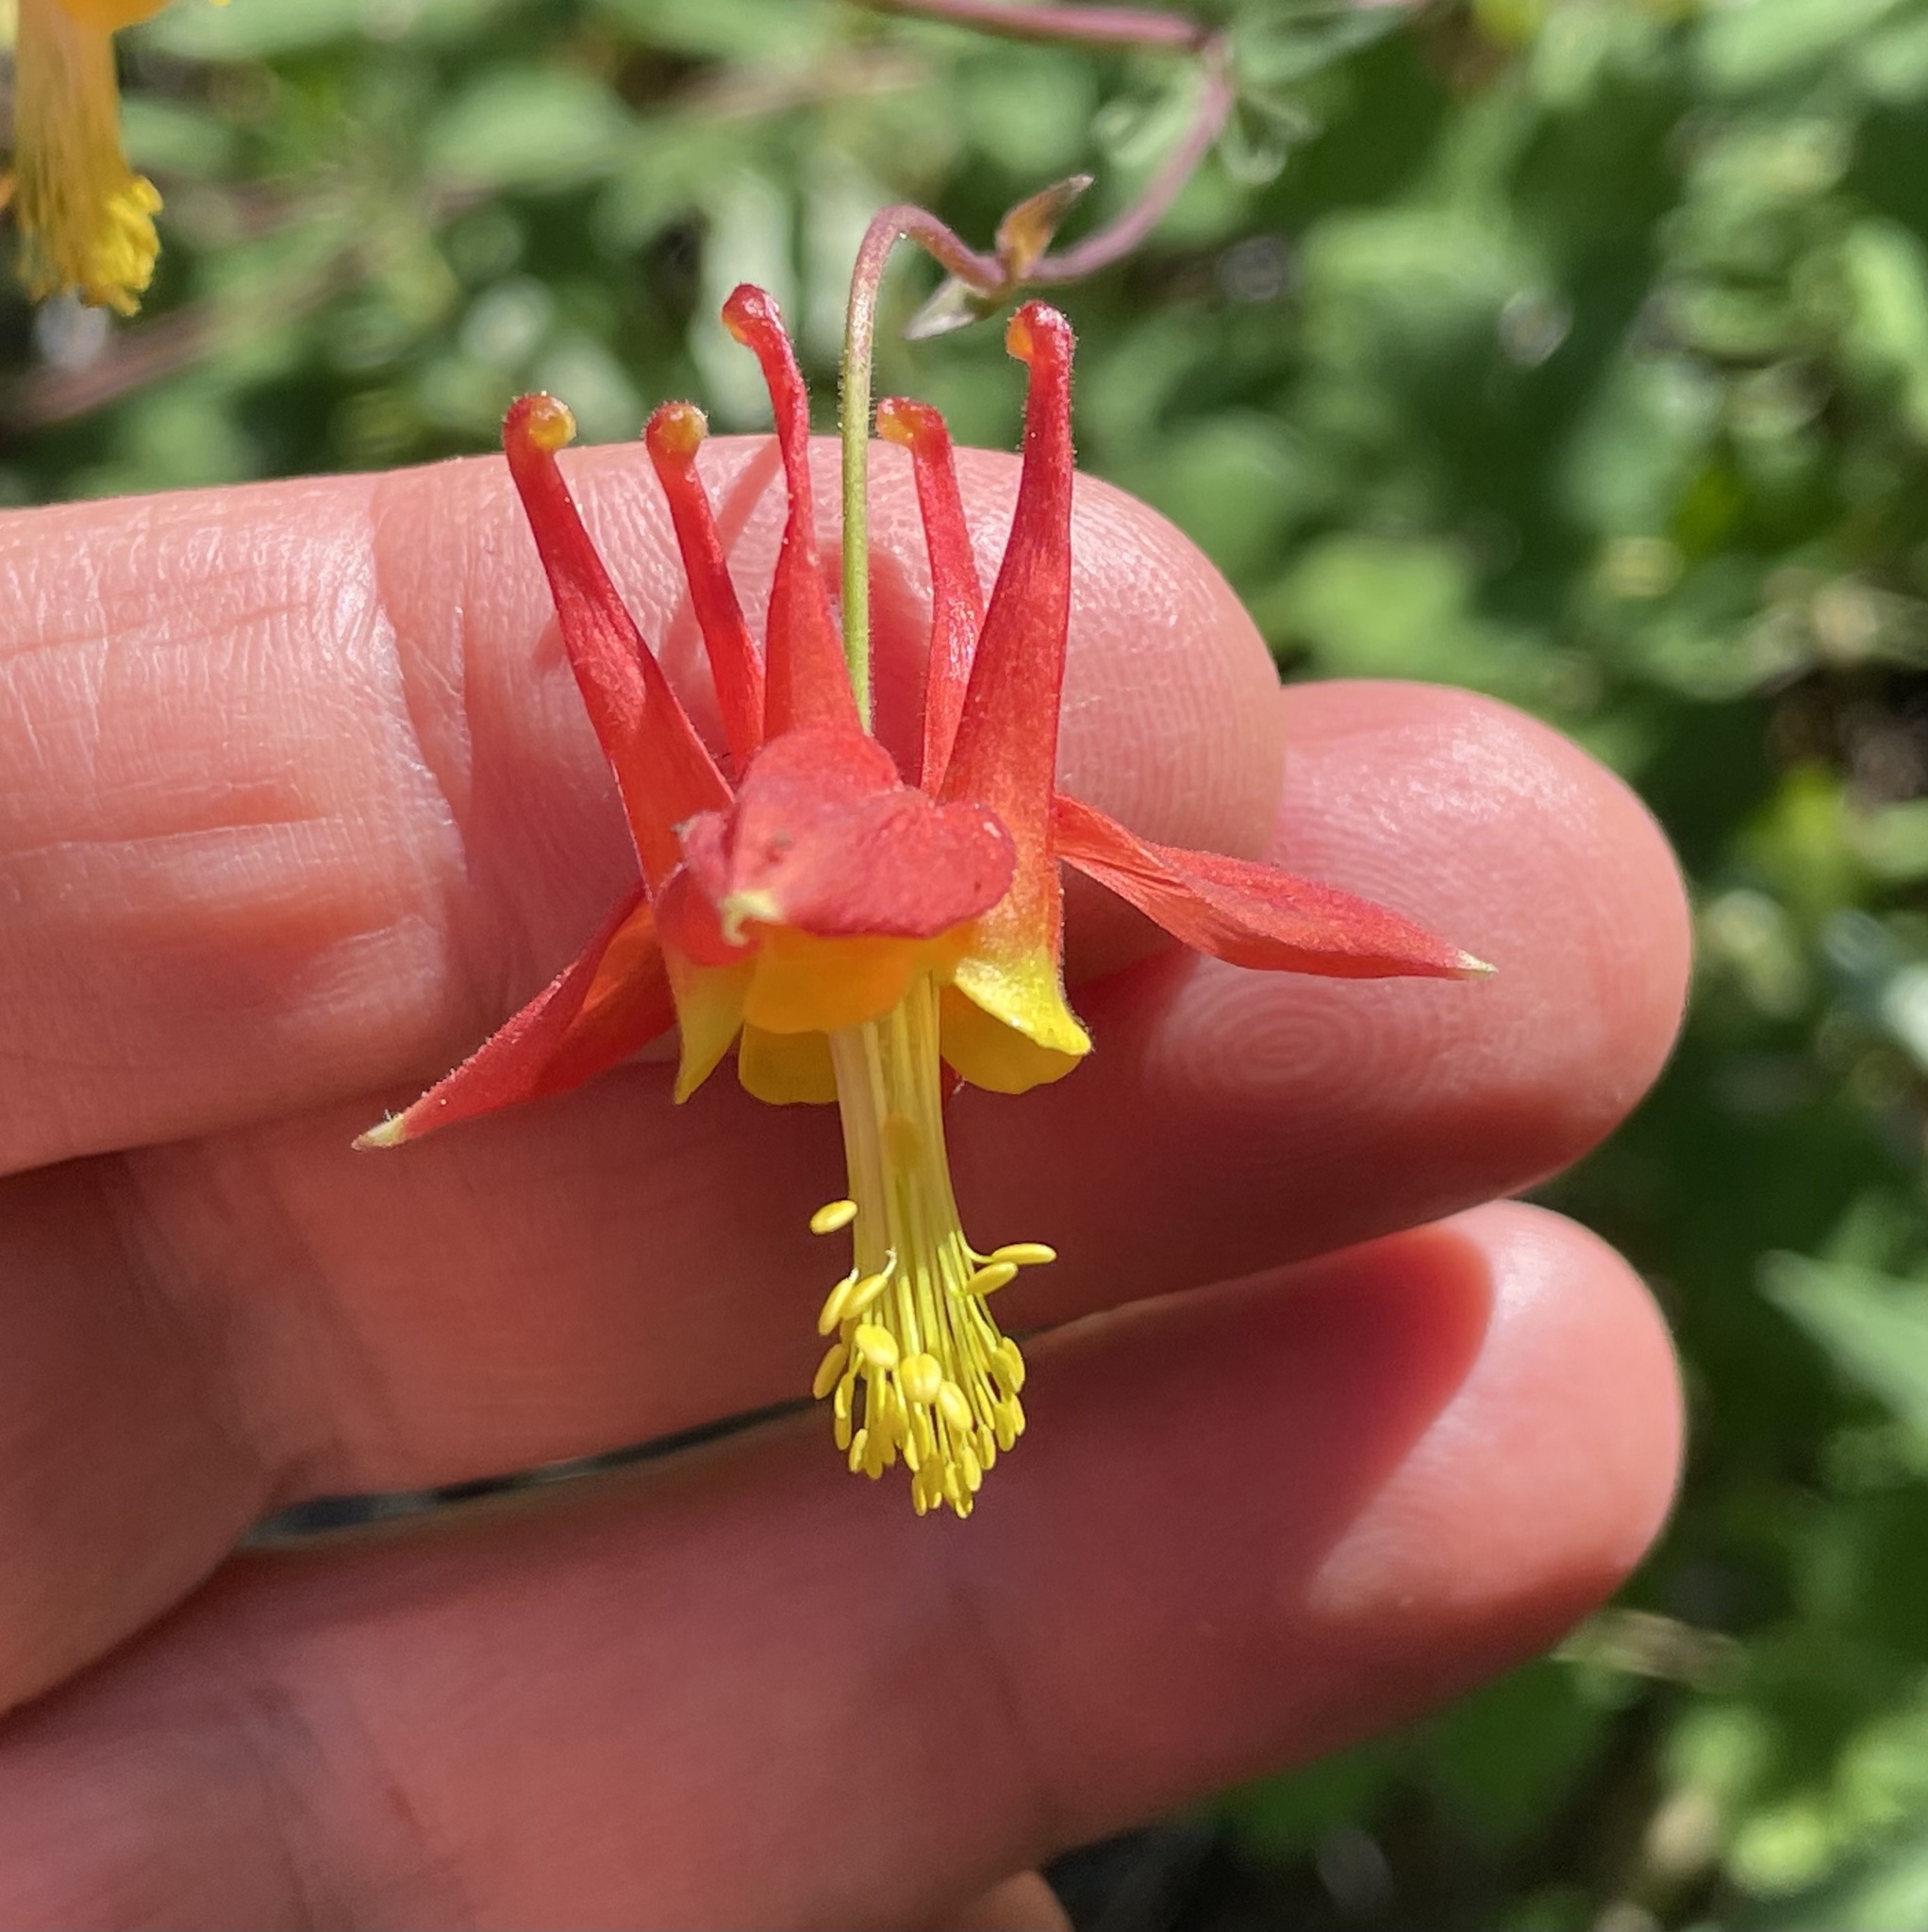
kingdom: Plantae
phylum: Tracheophyta
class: Magnoliopsida
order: Ranunculales
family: Ranunculaceae
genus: Aquilegia
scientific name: Aquilegia formosa
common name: Sitka columbine
